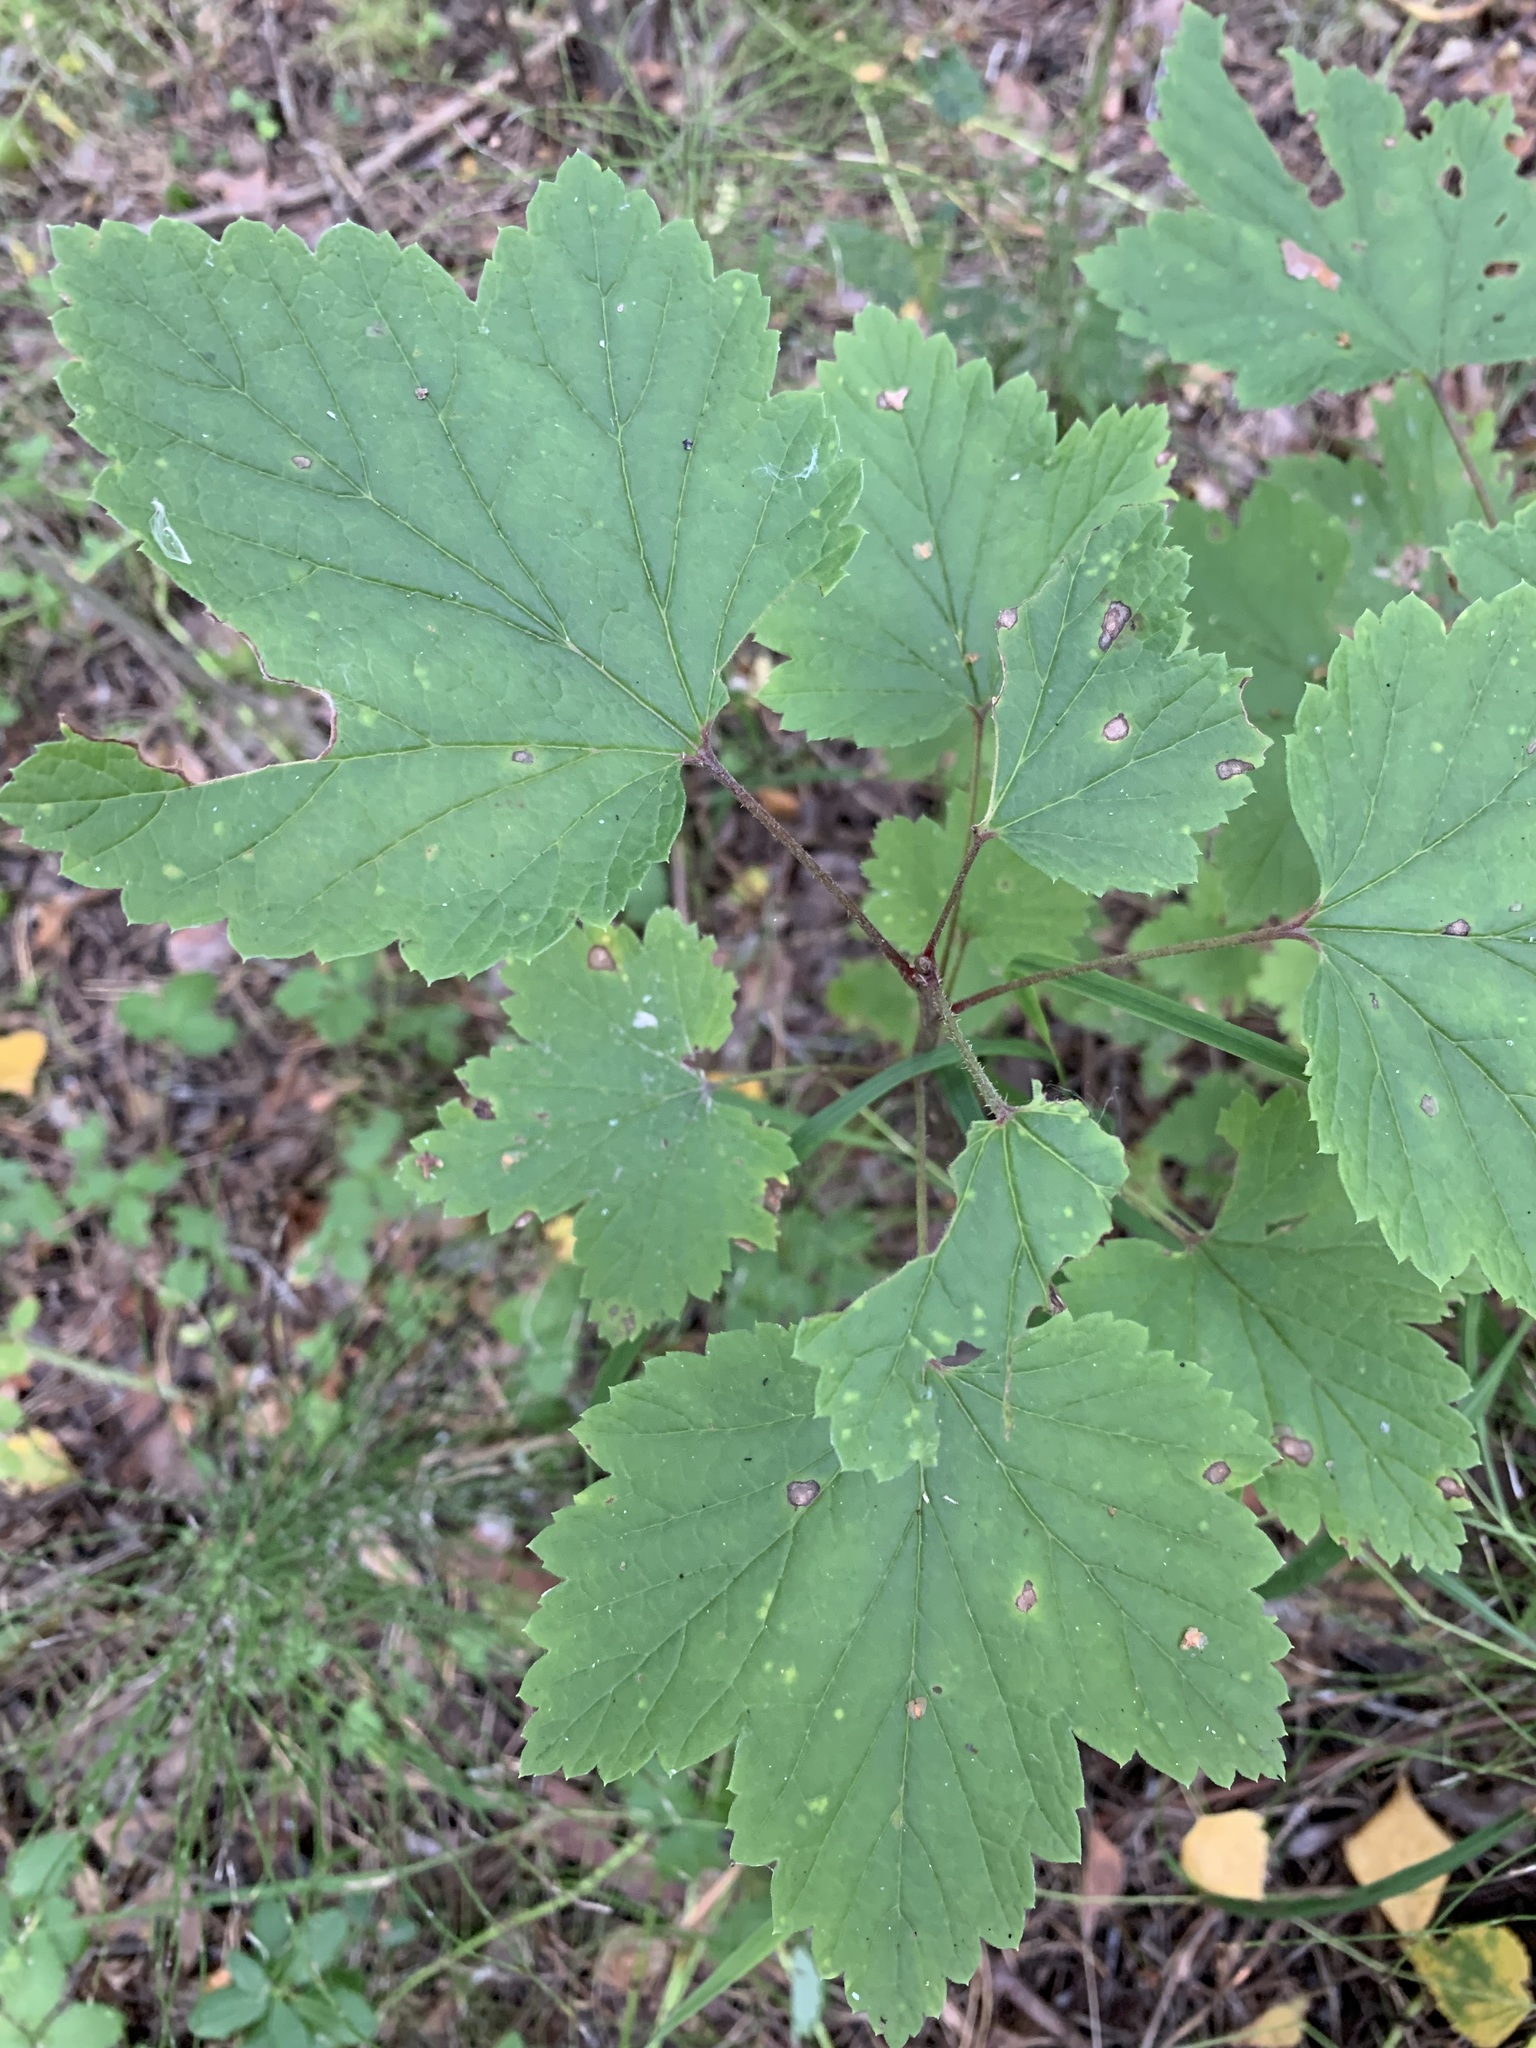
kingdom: Plantae
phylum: Tracheophyta
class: Magnoliopsida
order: Saxifragales
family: Grossulariaceae
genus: Ribes
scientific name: Ribes spicatum
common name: Downy currant
